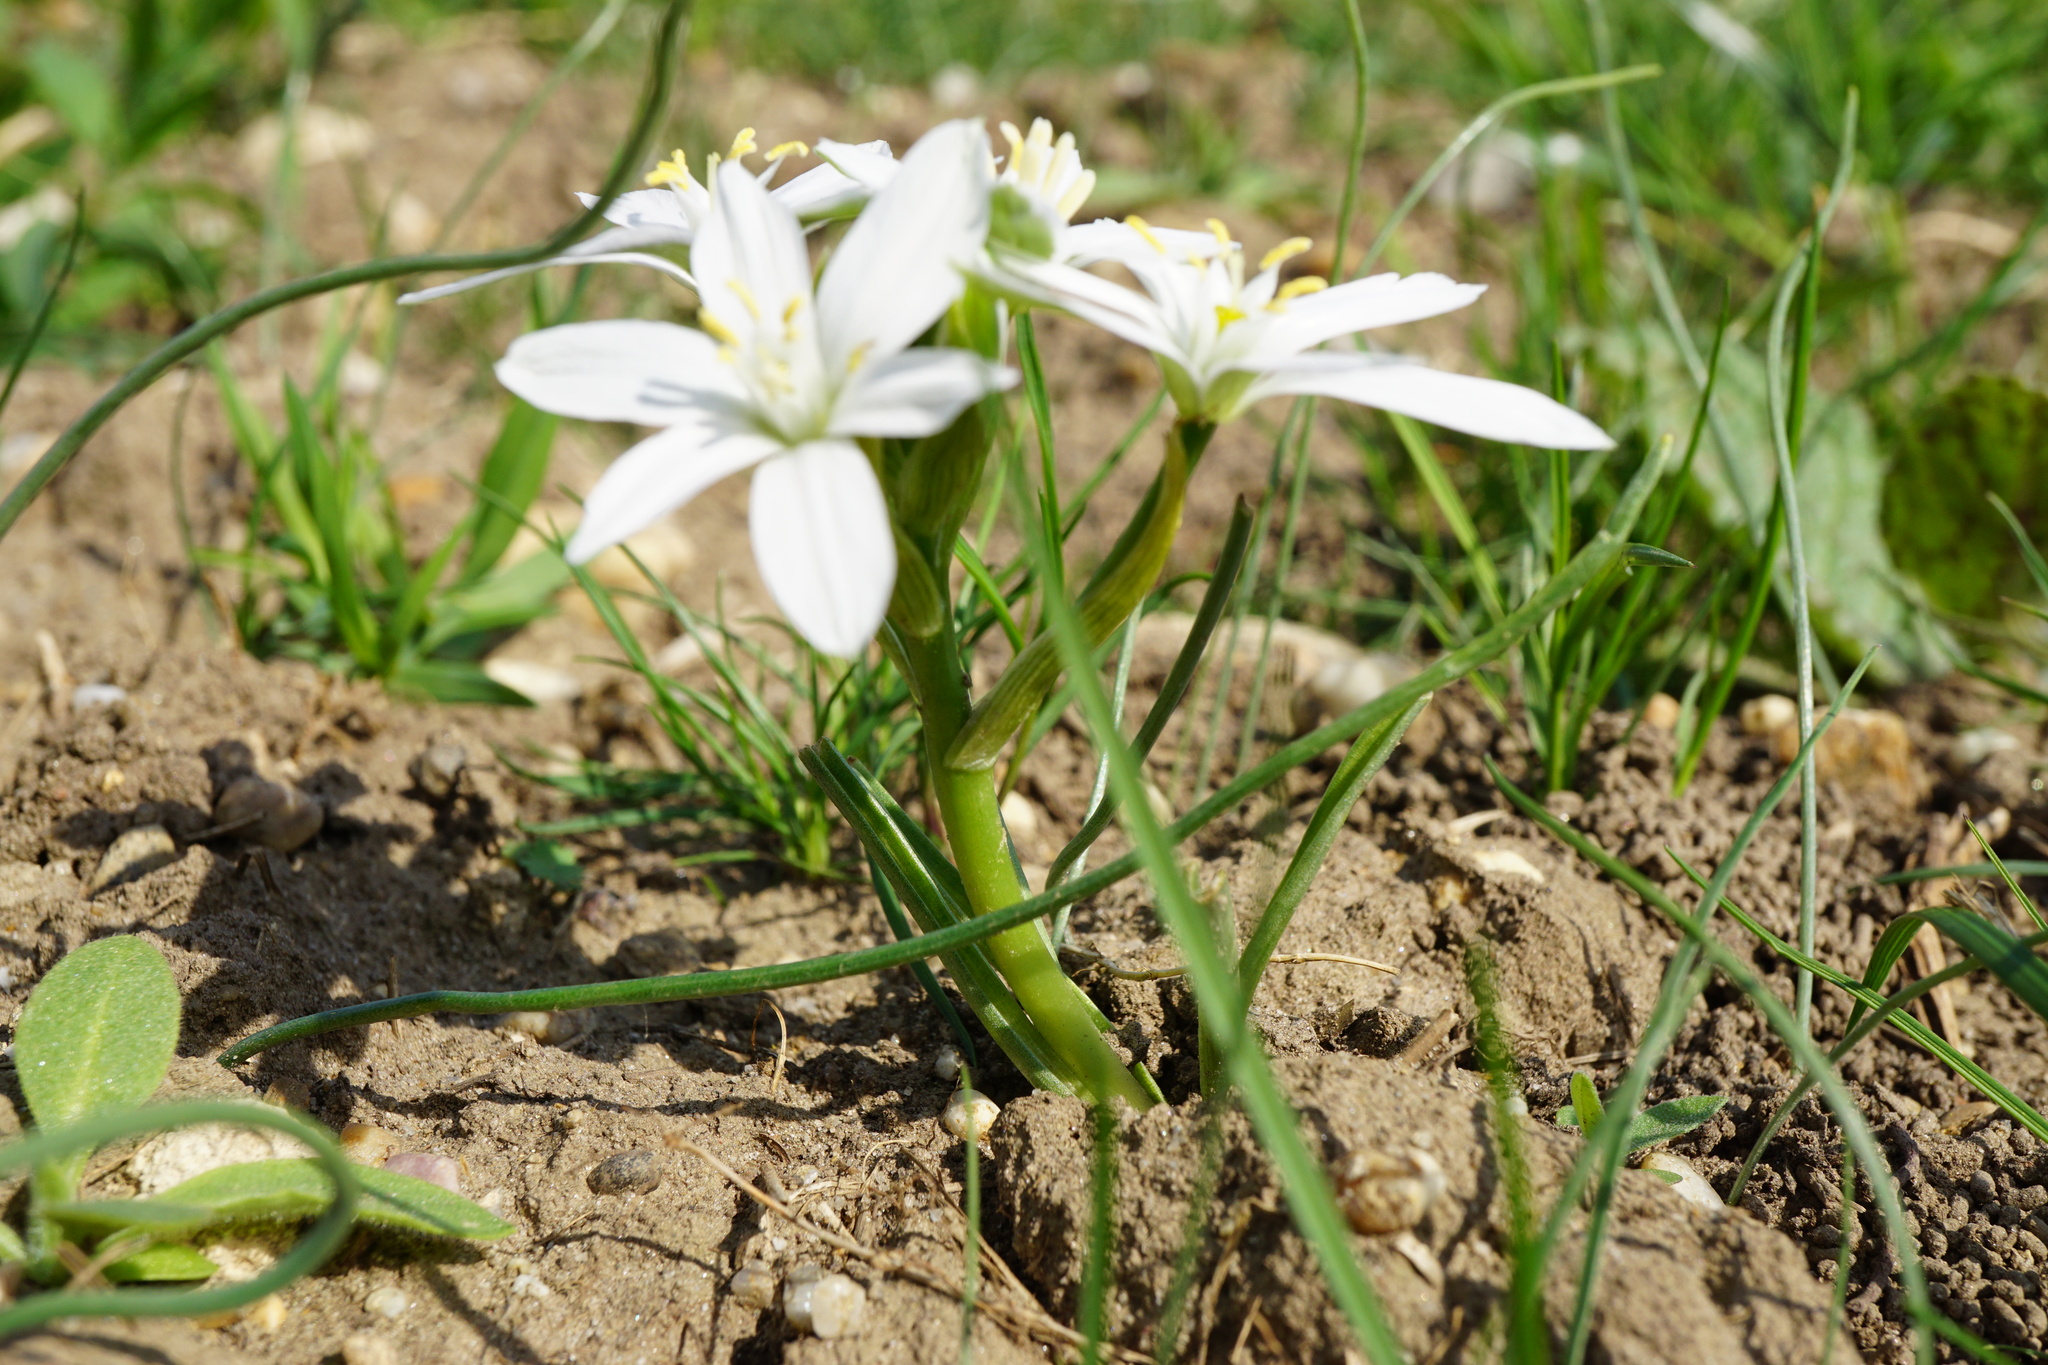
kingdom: Plantae
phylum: Tracheophyta
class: Liliopsida
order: Asparagales
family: Asparagaceae
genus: Ornithogalum
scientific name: Ornithogalum orthophyllum
